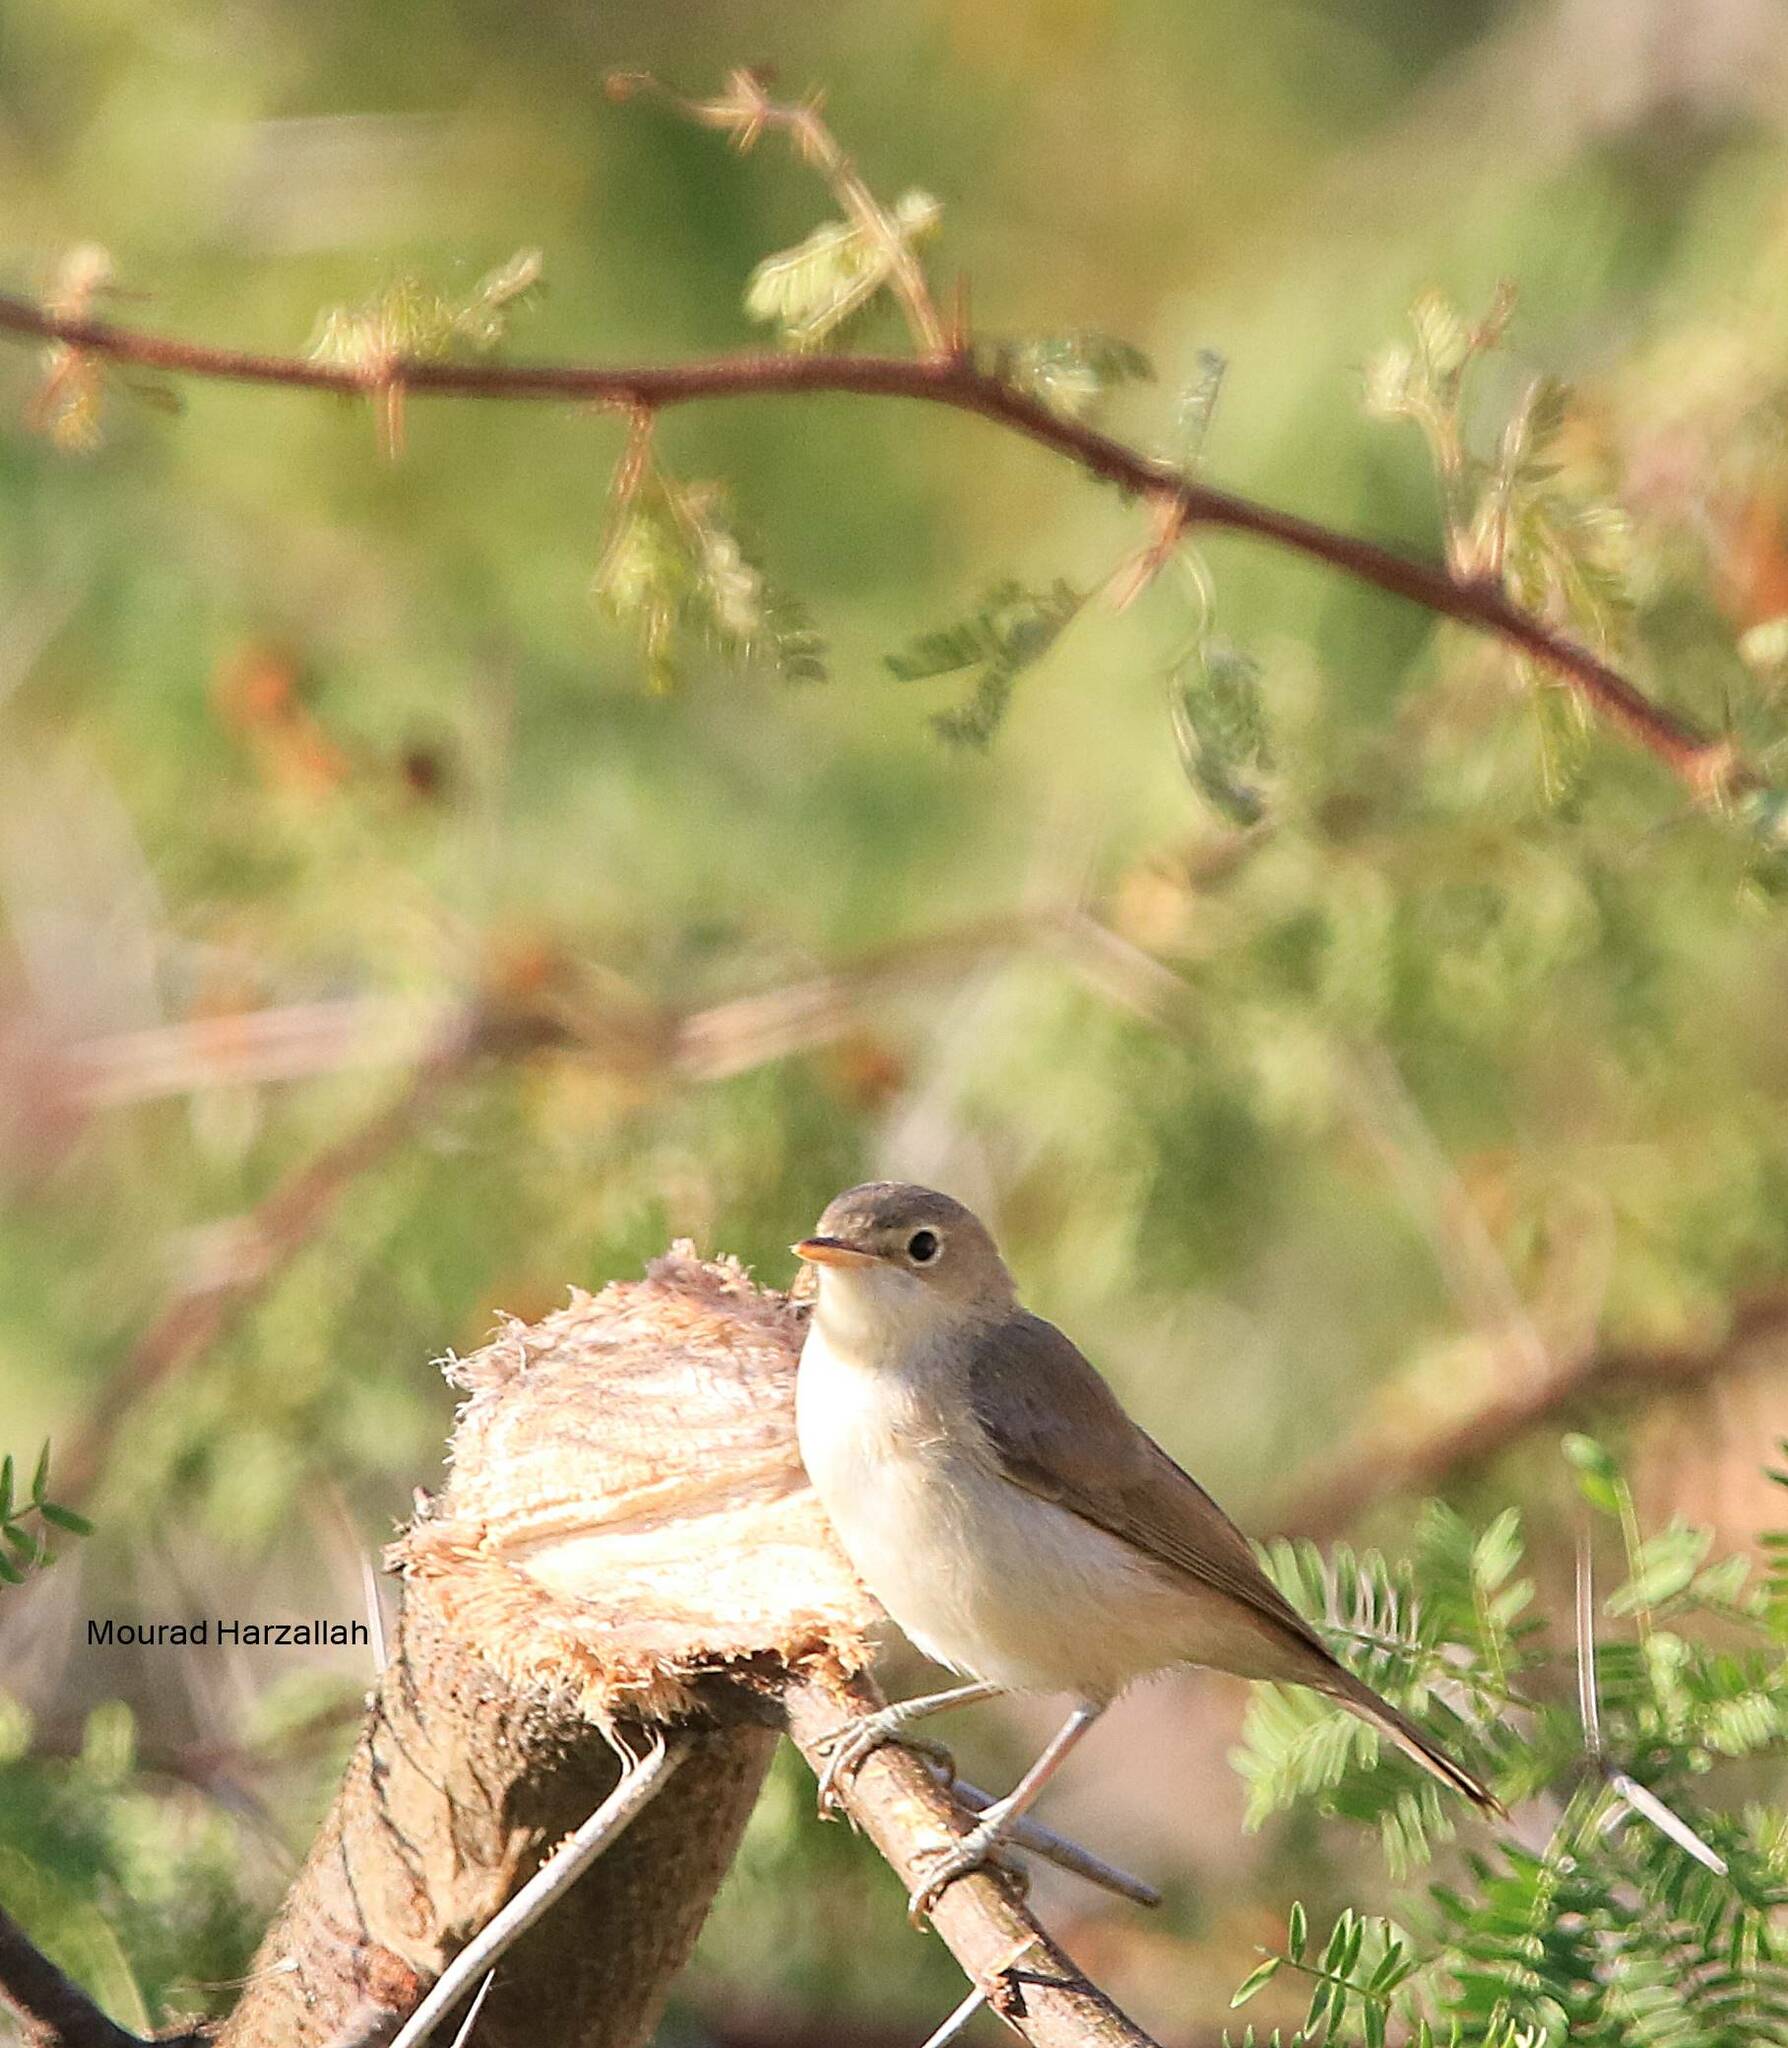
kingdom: Animalia
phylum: Chordata
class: Aves
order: Passeriformes
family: Muscicapidae
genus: Luscinia
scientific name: Luscinia megarhynchos
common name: Common nightingale
